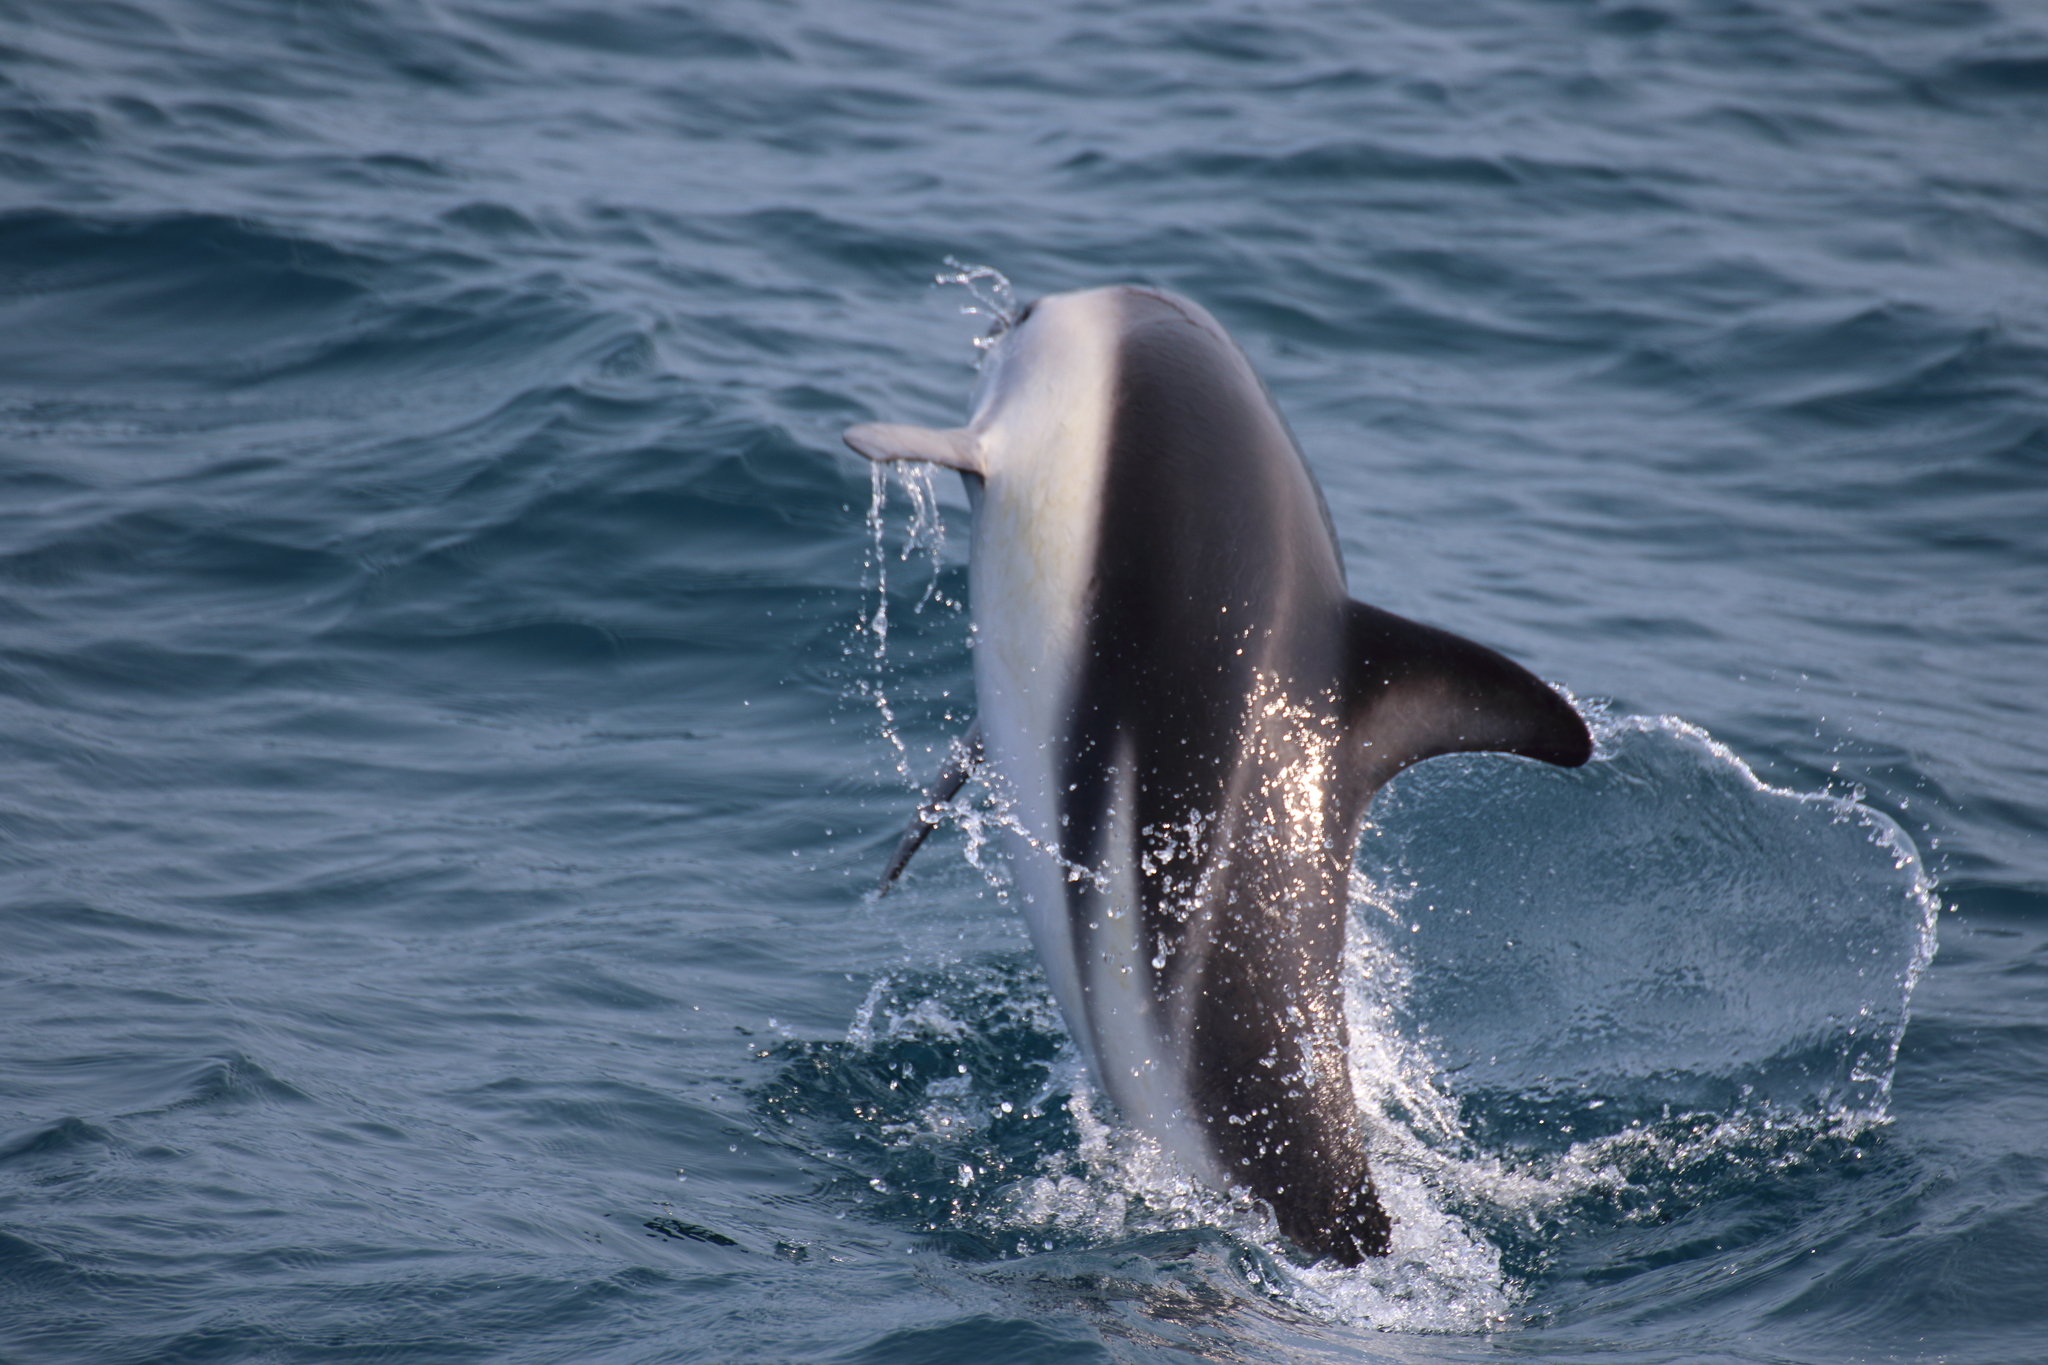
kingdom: Animalia
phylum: Chordata
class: Mammalia
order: Cetacea
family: Delphinidae
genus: Lagenorhynchus
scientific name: Lagenorhynchus obscurus
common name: Dusky dolphin
